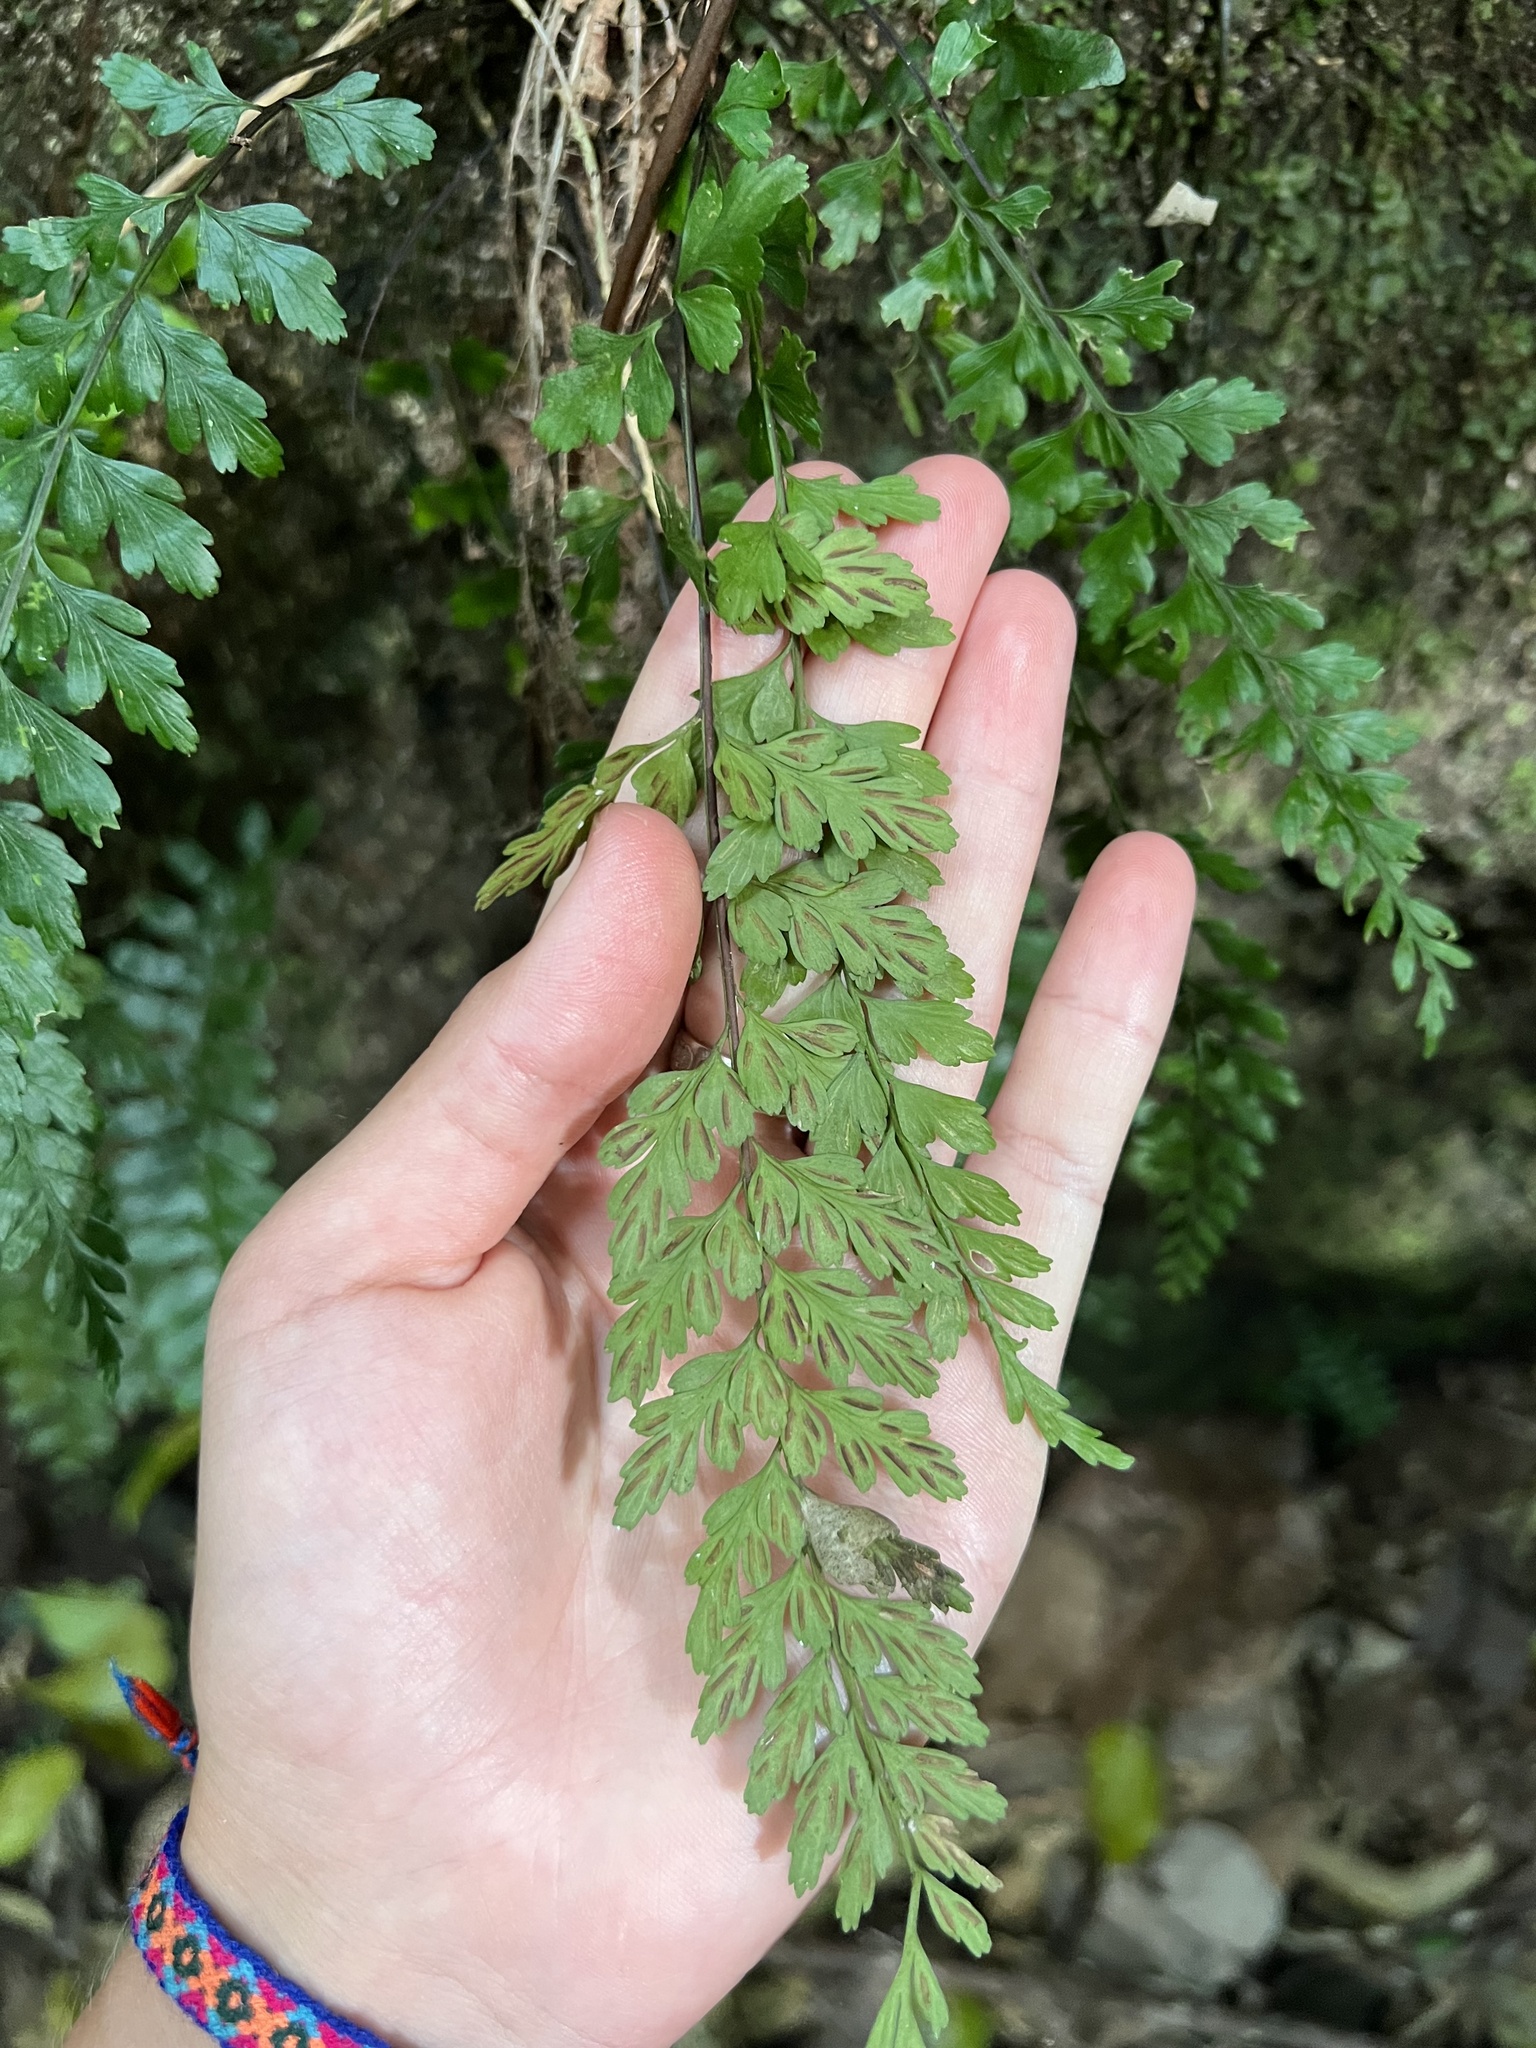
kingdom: Plantae
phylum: Tracheophyta
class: Polypodiopsida
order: Polypodiales
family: Aspleniaceae
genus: Asplenium
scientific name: Asplenium parksii
